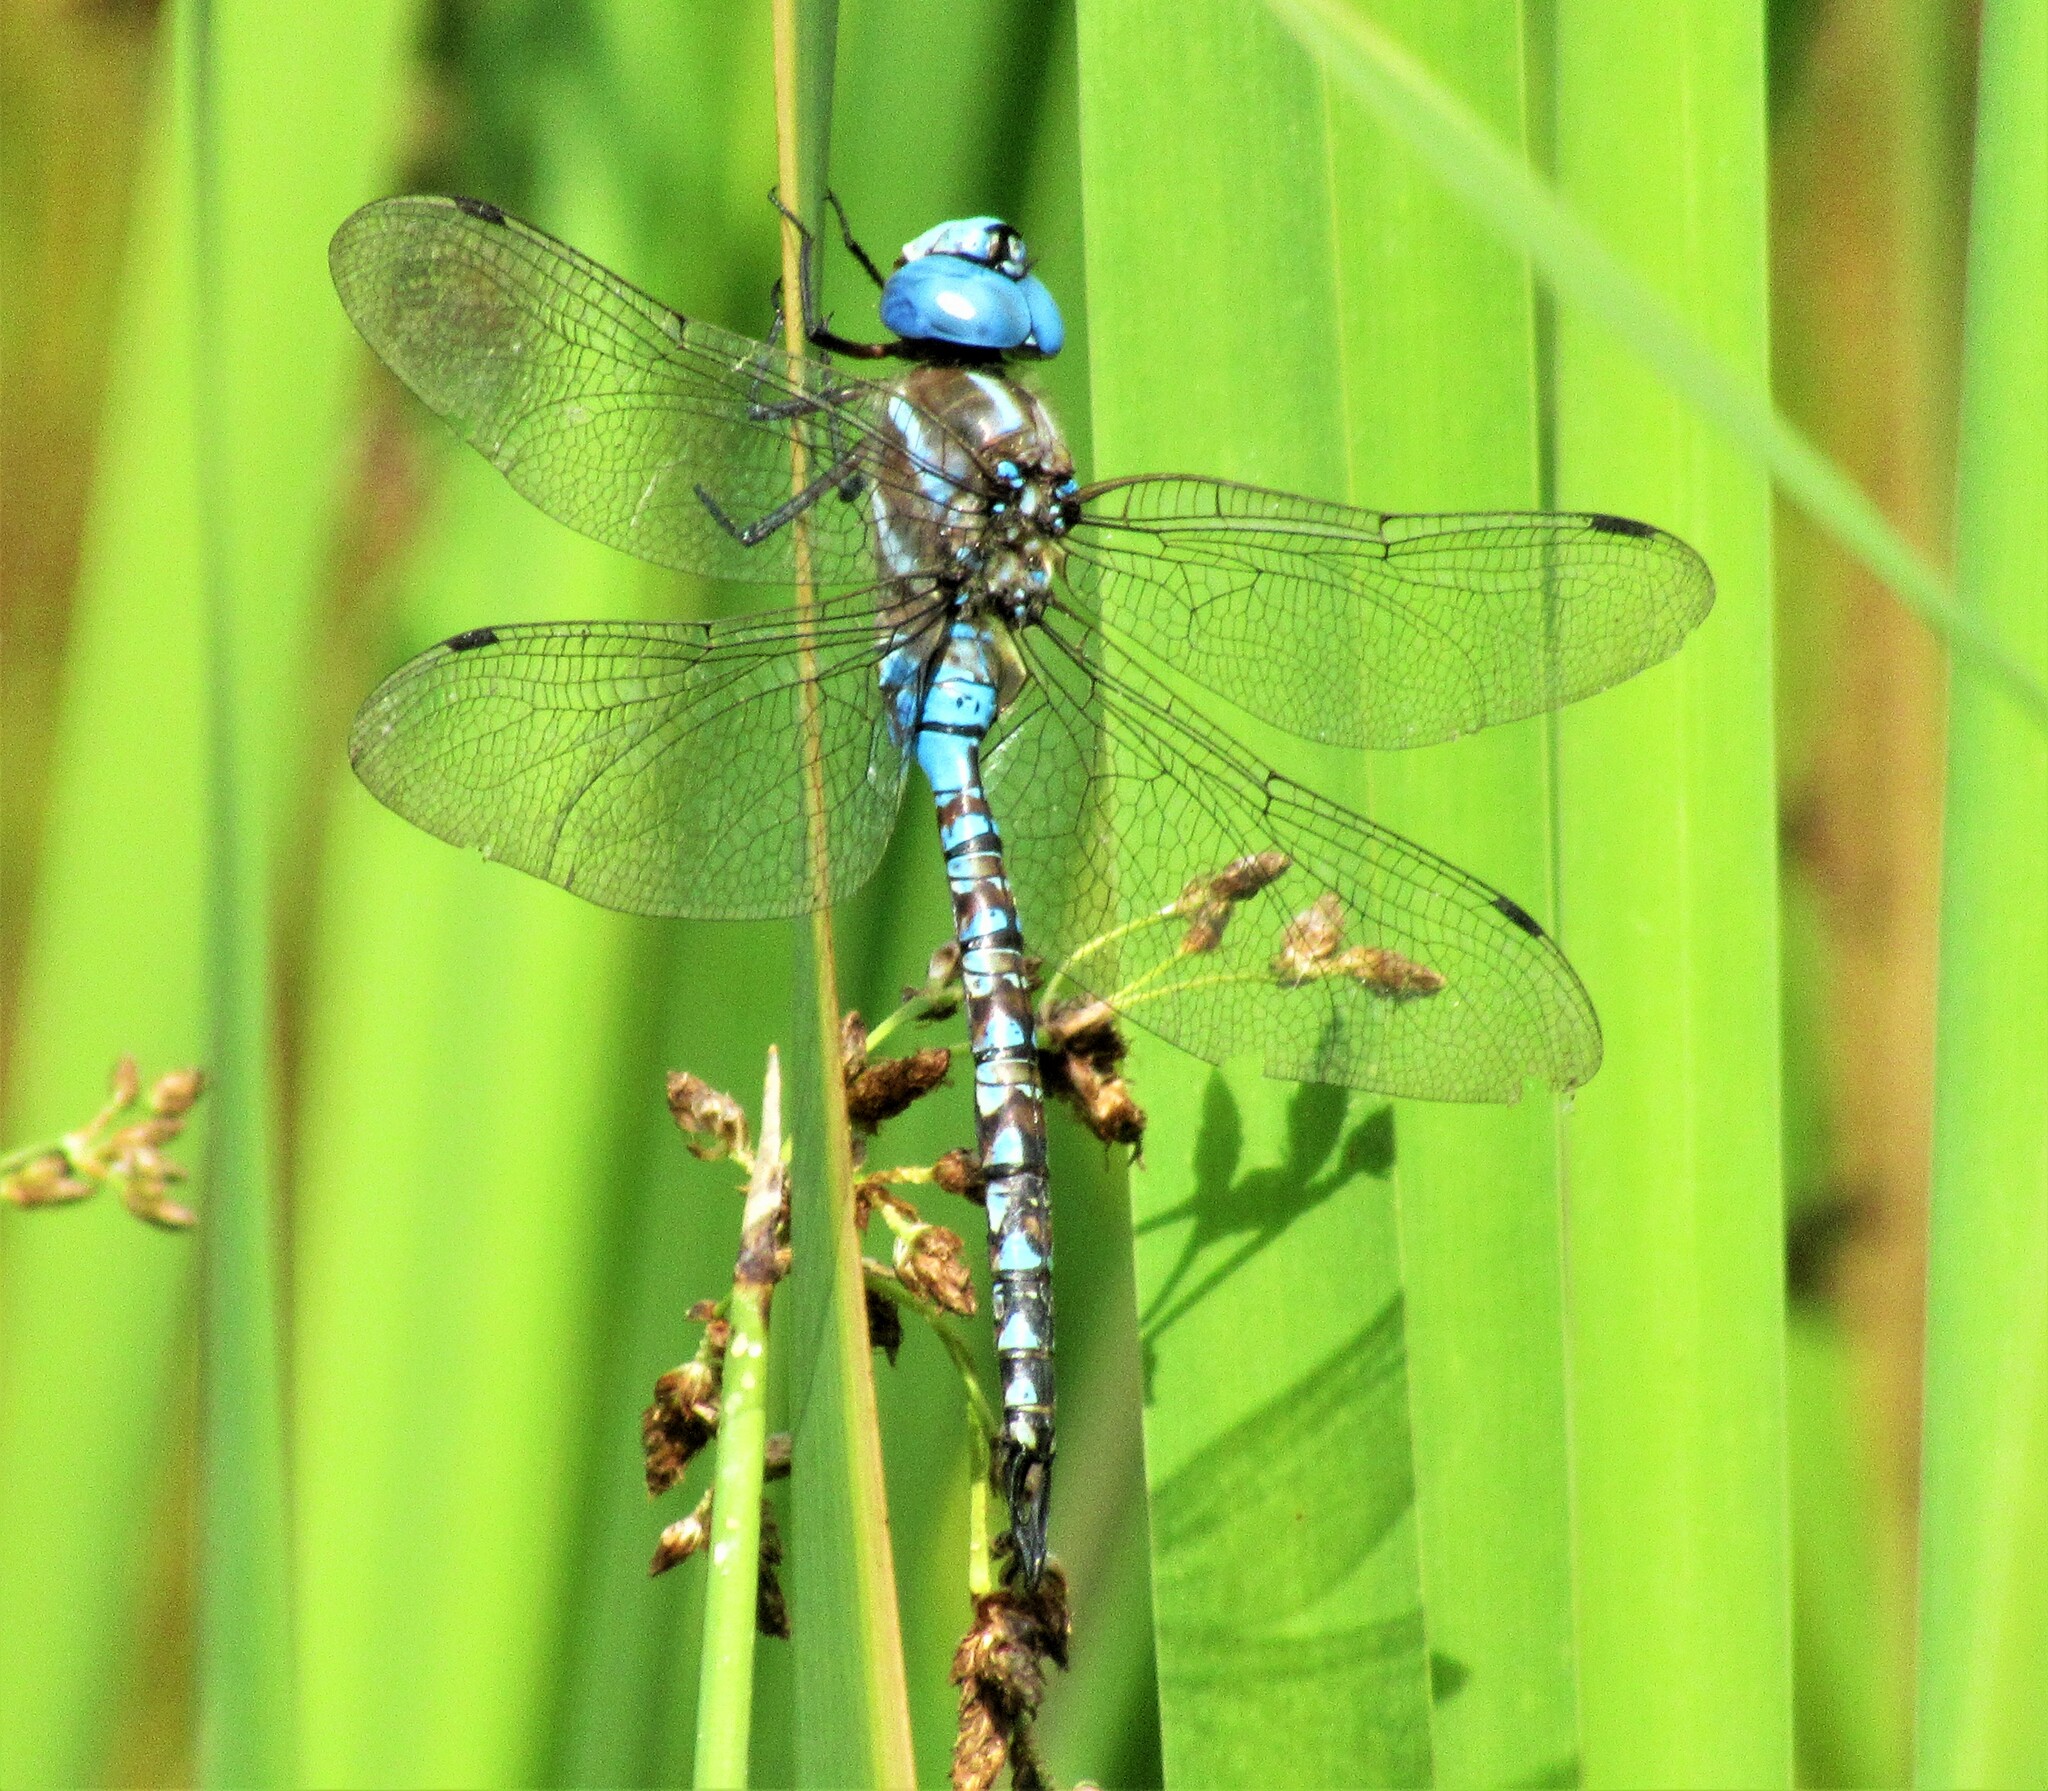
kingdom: Animalia
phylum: Arthropoda
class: Insecta
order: Odonata
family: Aeshnidae
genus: Rhionaeschna
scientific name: Rhionaeschna multicolor
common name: Blue-eyed darner
